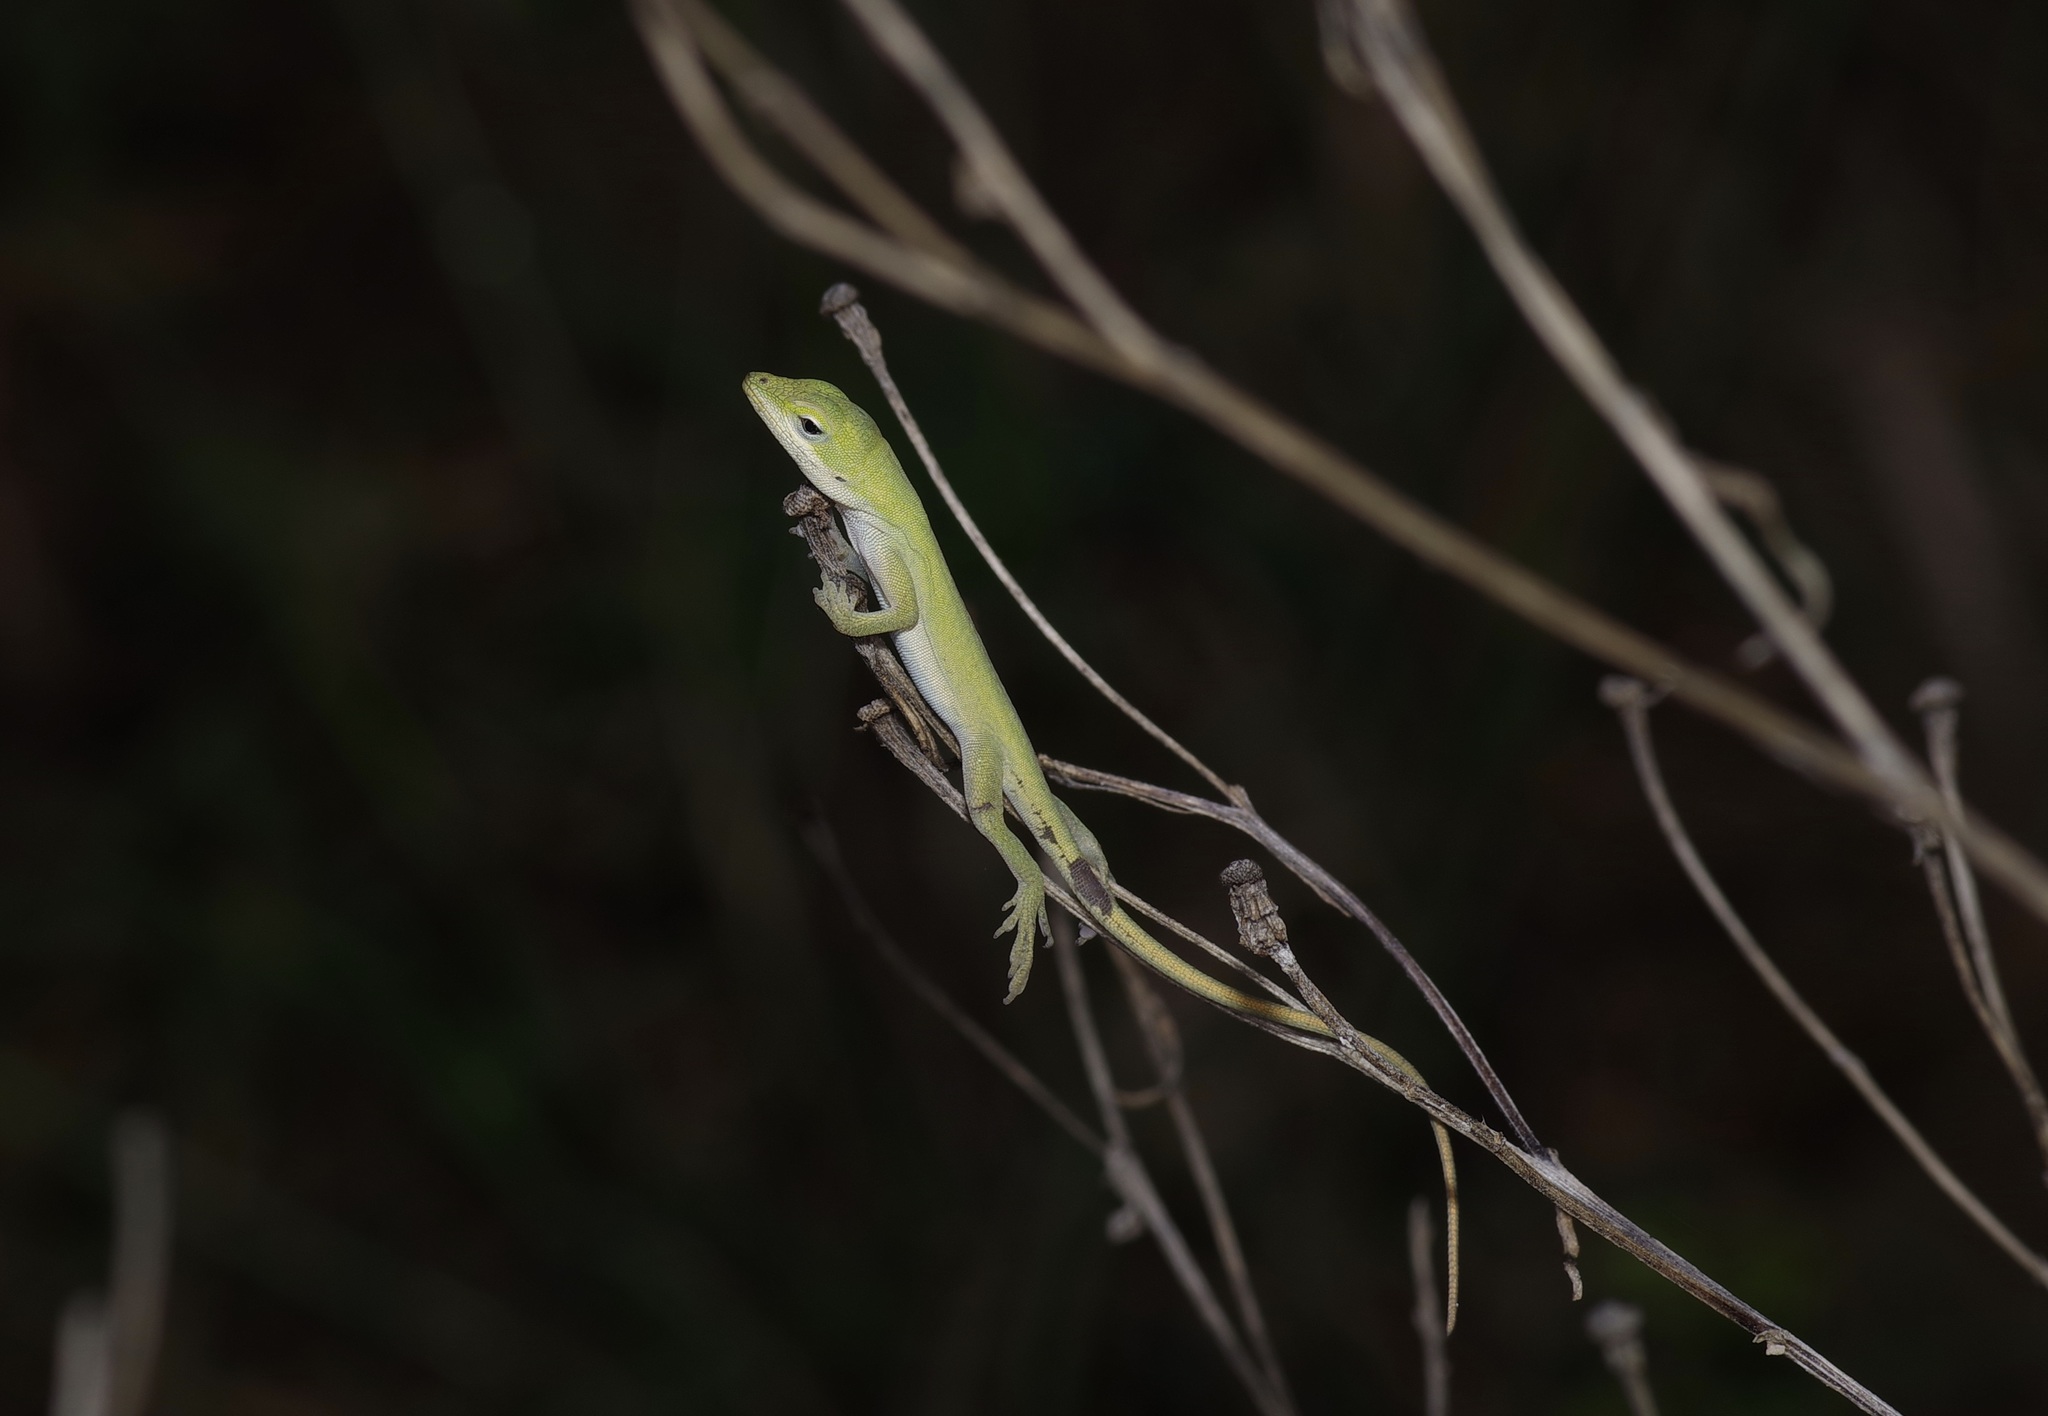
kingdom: Animalia
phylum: Chordata
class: Squamata
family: Dactyloidae
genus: Anolis
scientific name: Anolis carolinensis
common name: Green anole
